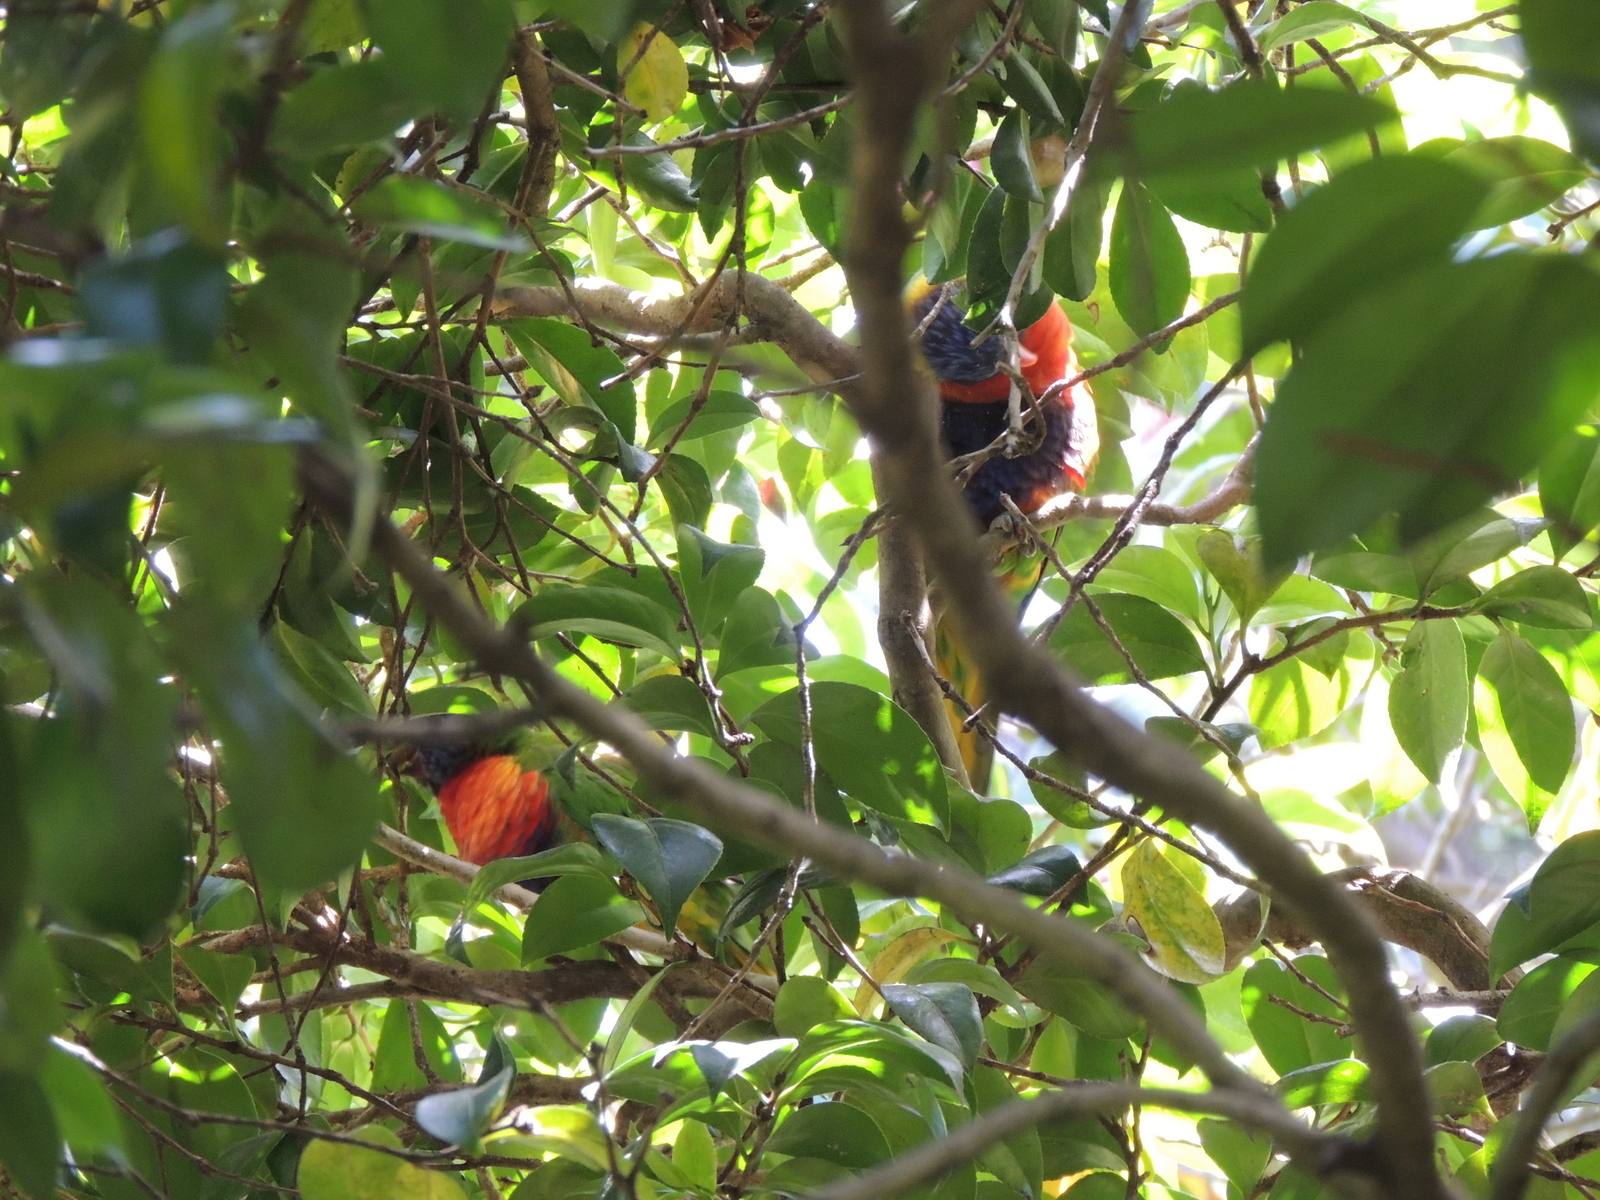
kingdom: Animalia
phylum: Chordata
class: Aves
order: Psittaciformes
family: Psittacidae
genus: Trichoglossus
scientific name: Trichoglossus haematodus
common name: Coconut lorikeet
